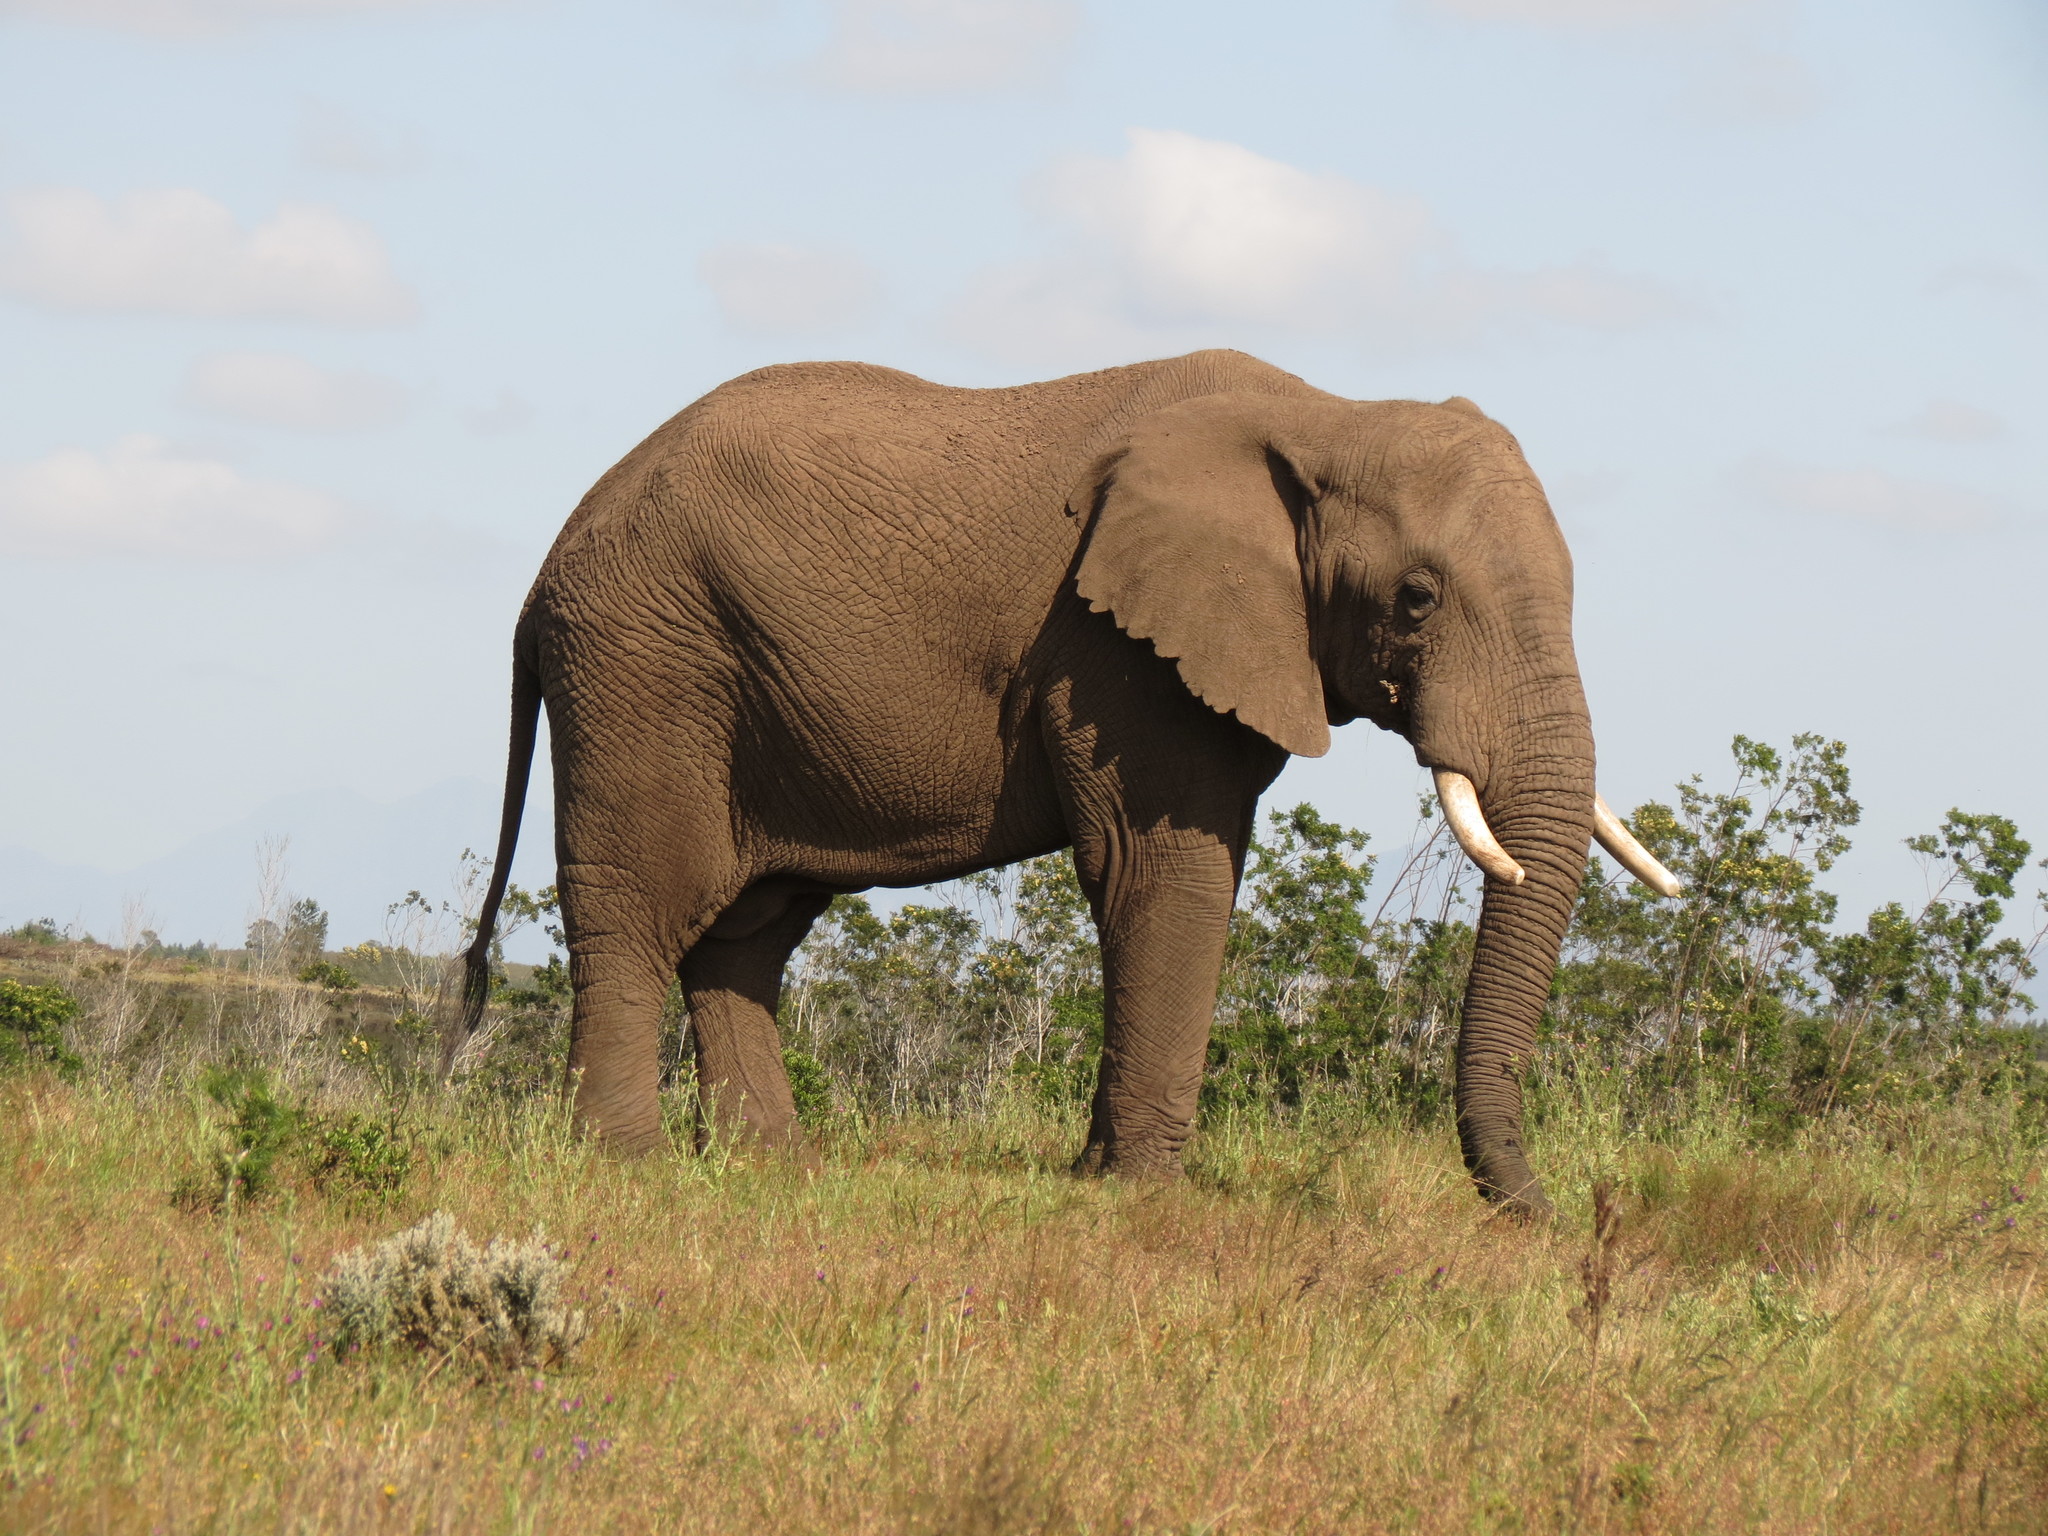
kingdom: Animalia
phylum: Chordata
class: Mammalia
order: Proboscidea
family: Elephantidae
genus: Loxodonta
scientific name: Loxodonta africana
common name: African elephant
